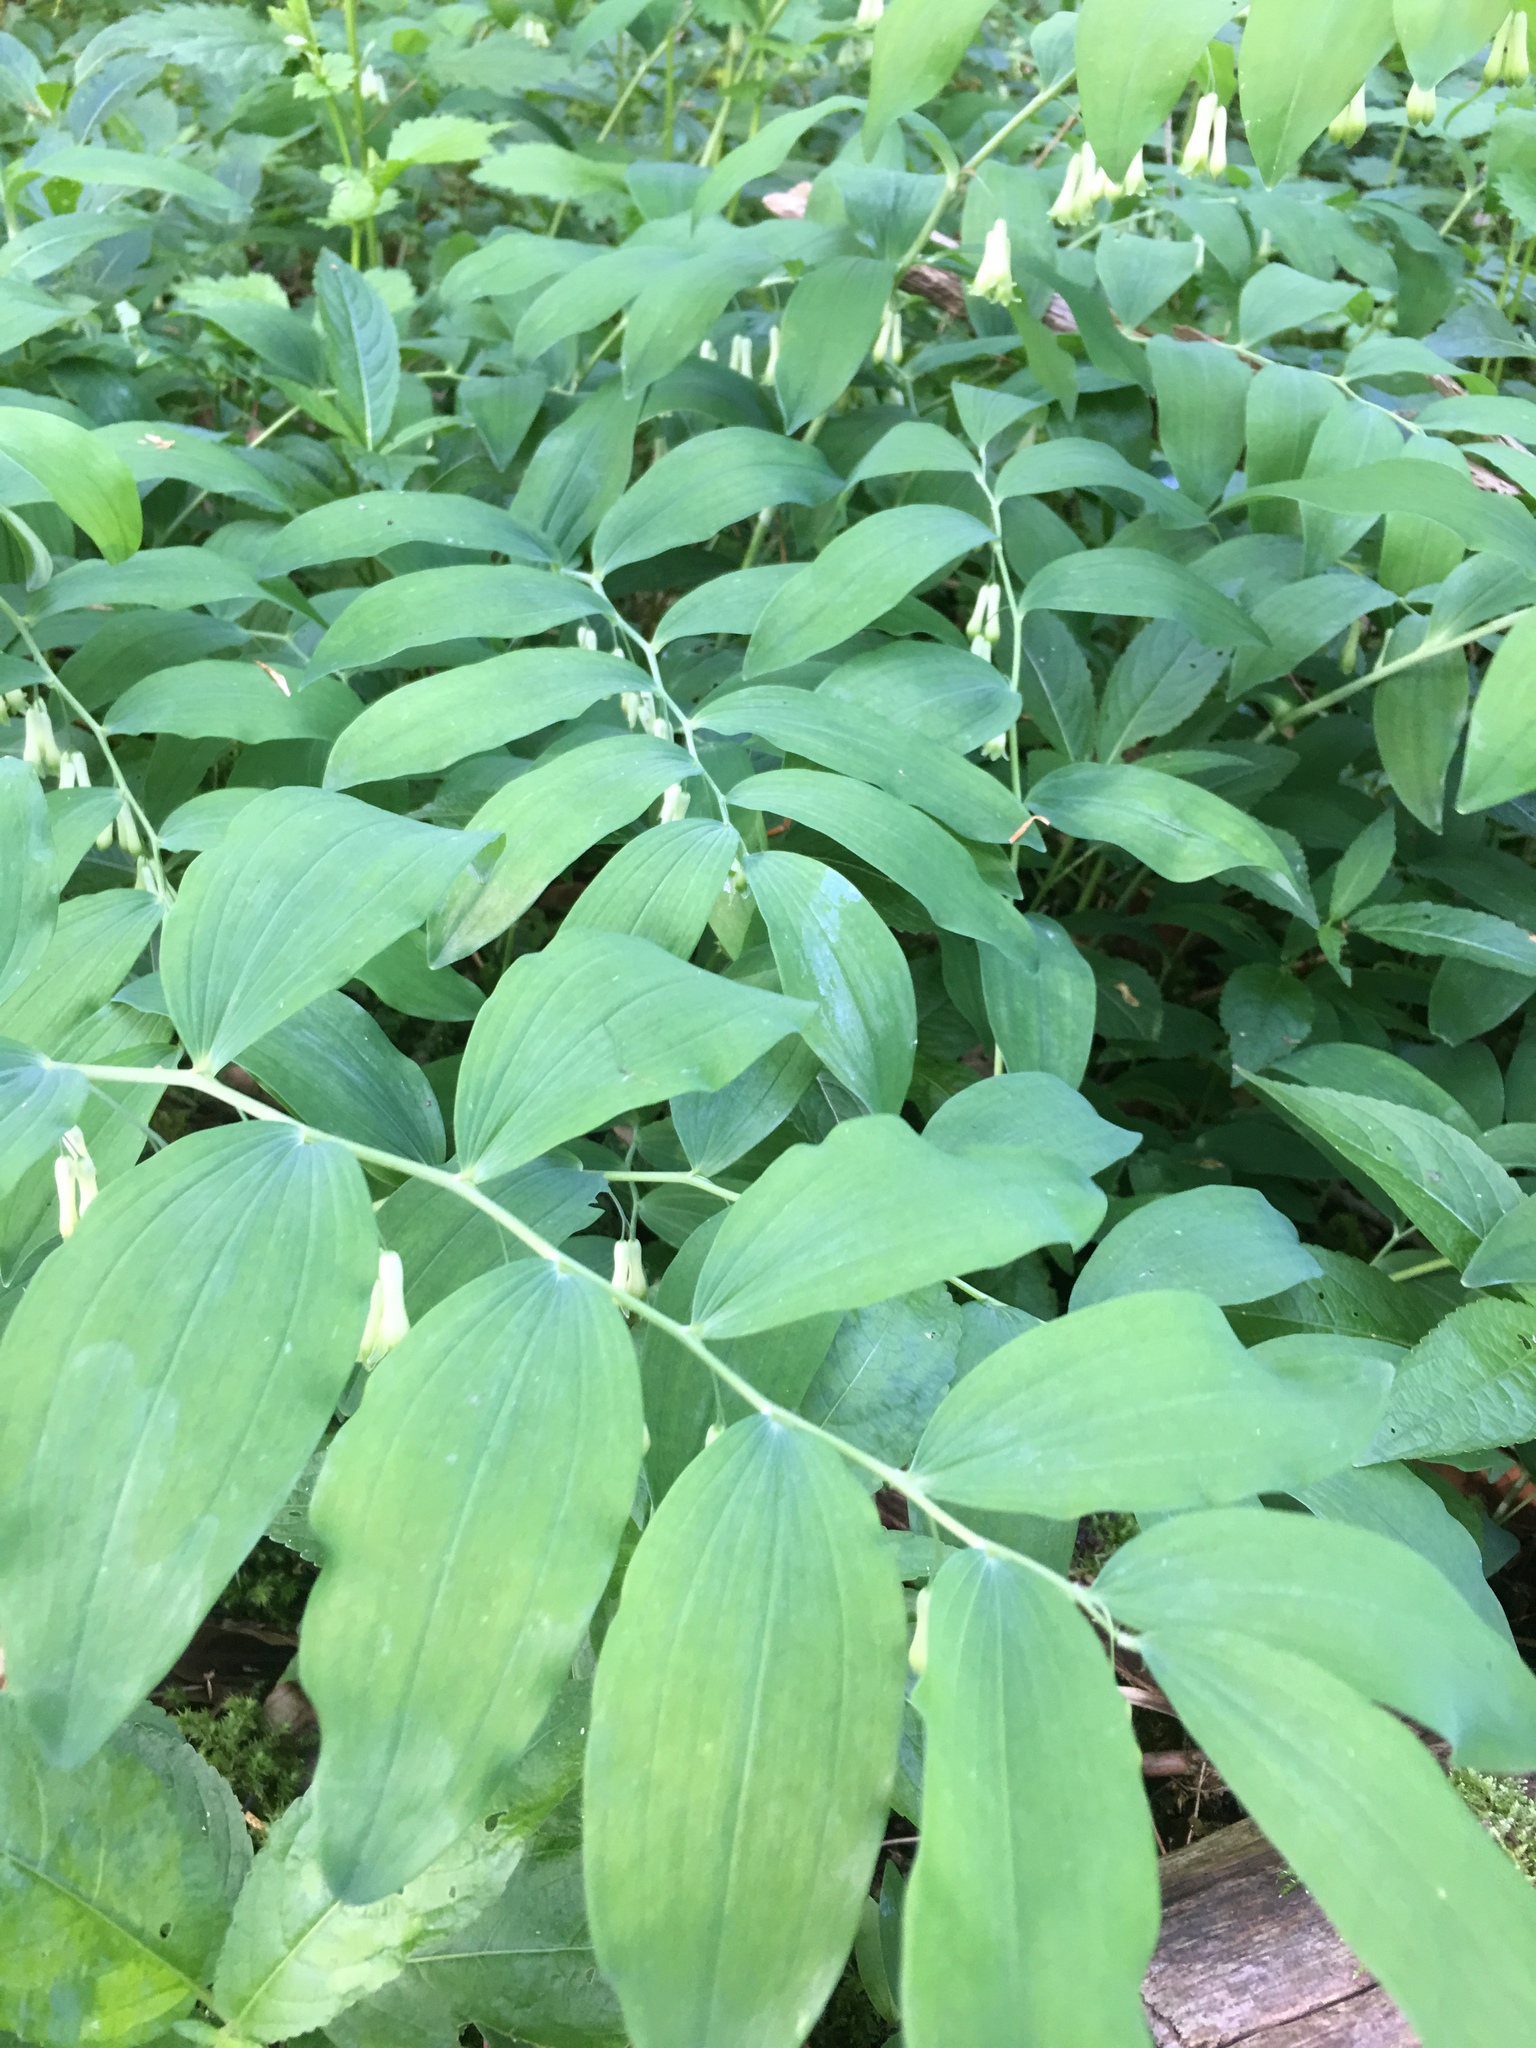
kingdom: Plantae
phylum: Tracheophyta
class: Liliopsida
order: Asparagales
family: Asparagaceae
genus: Polygonatum
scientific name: Polygonatum multiflorum
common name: Solomon's-seal
